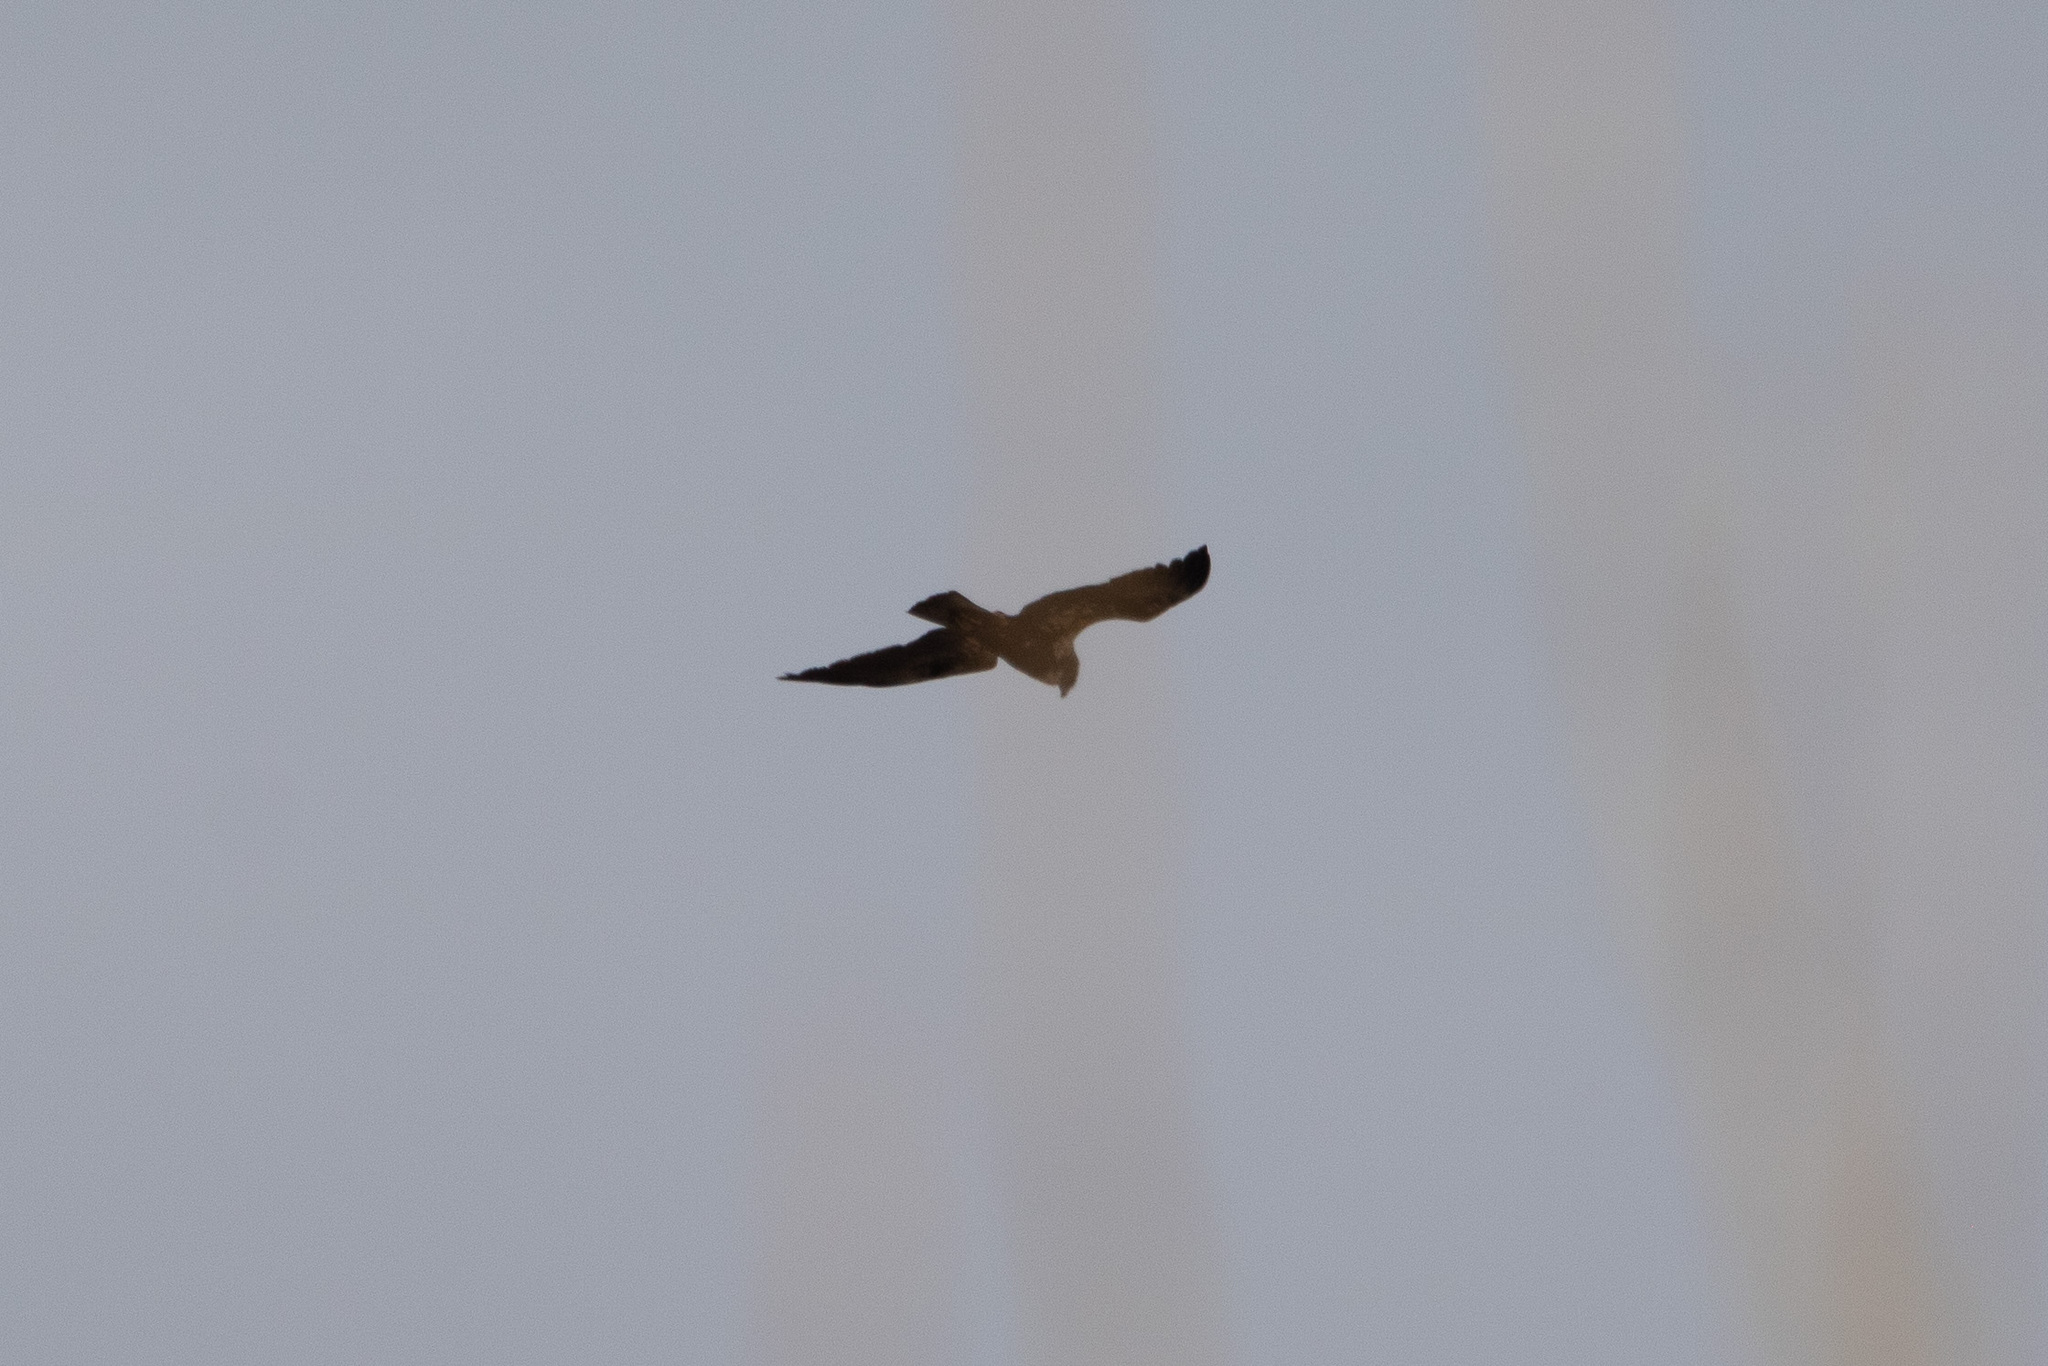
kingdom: Animalia
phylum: Chordata
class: Aves
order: Accipitriformes
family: Accipitridae
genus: Circus
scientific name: Circus aeruginosus
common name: Western marsh harrier
